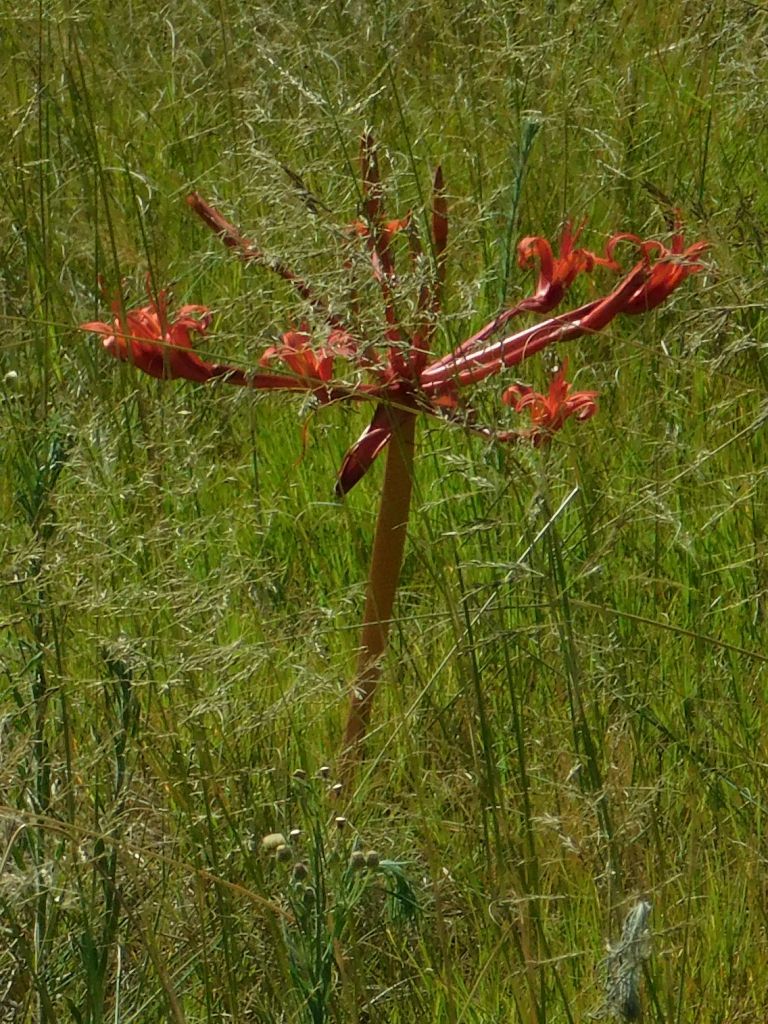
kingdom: Plantae
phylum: Tracheophyta
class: Liliopsida
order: Asparagales
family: Amaryllidaceae
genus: Brunsvigia
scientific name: Brunsvigia orientalis
